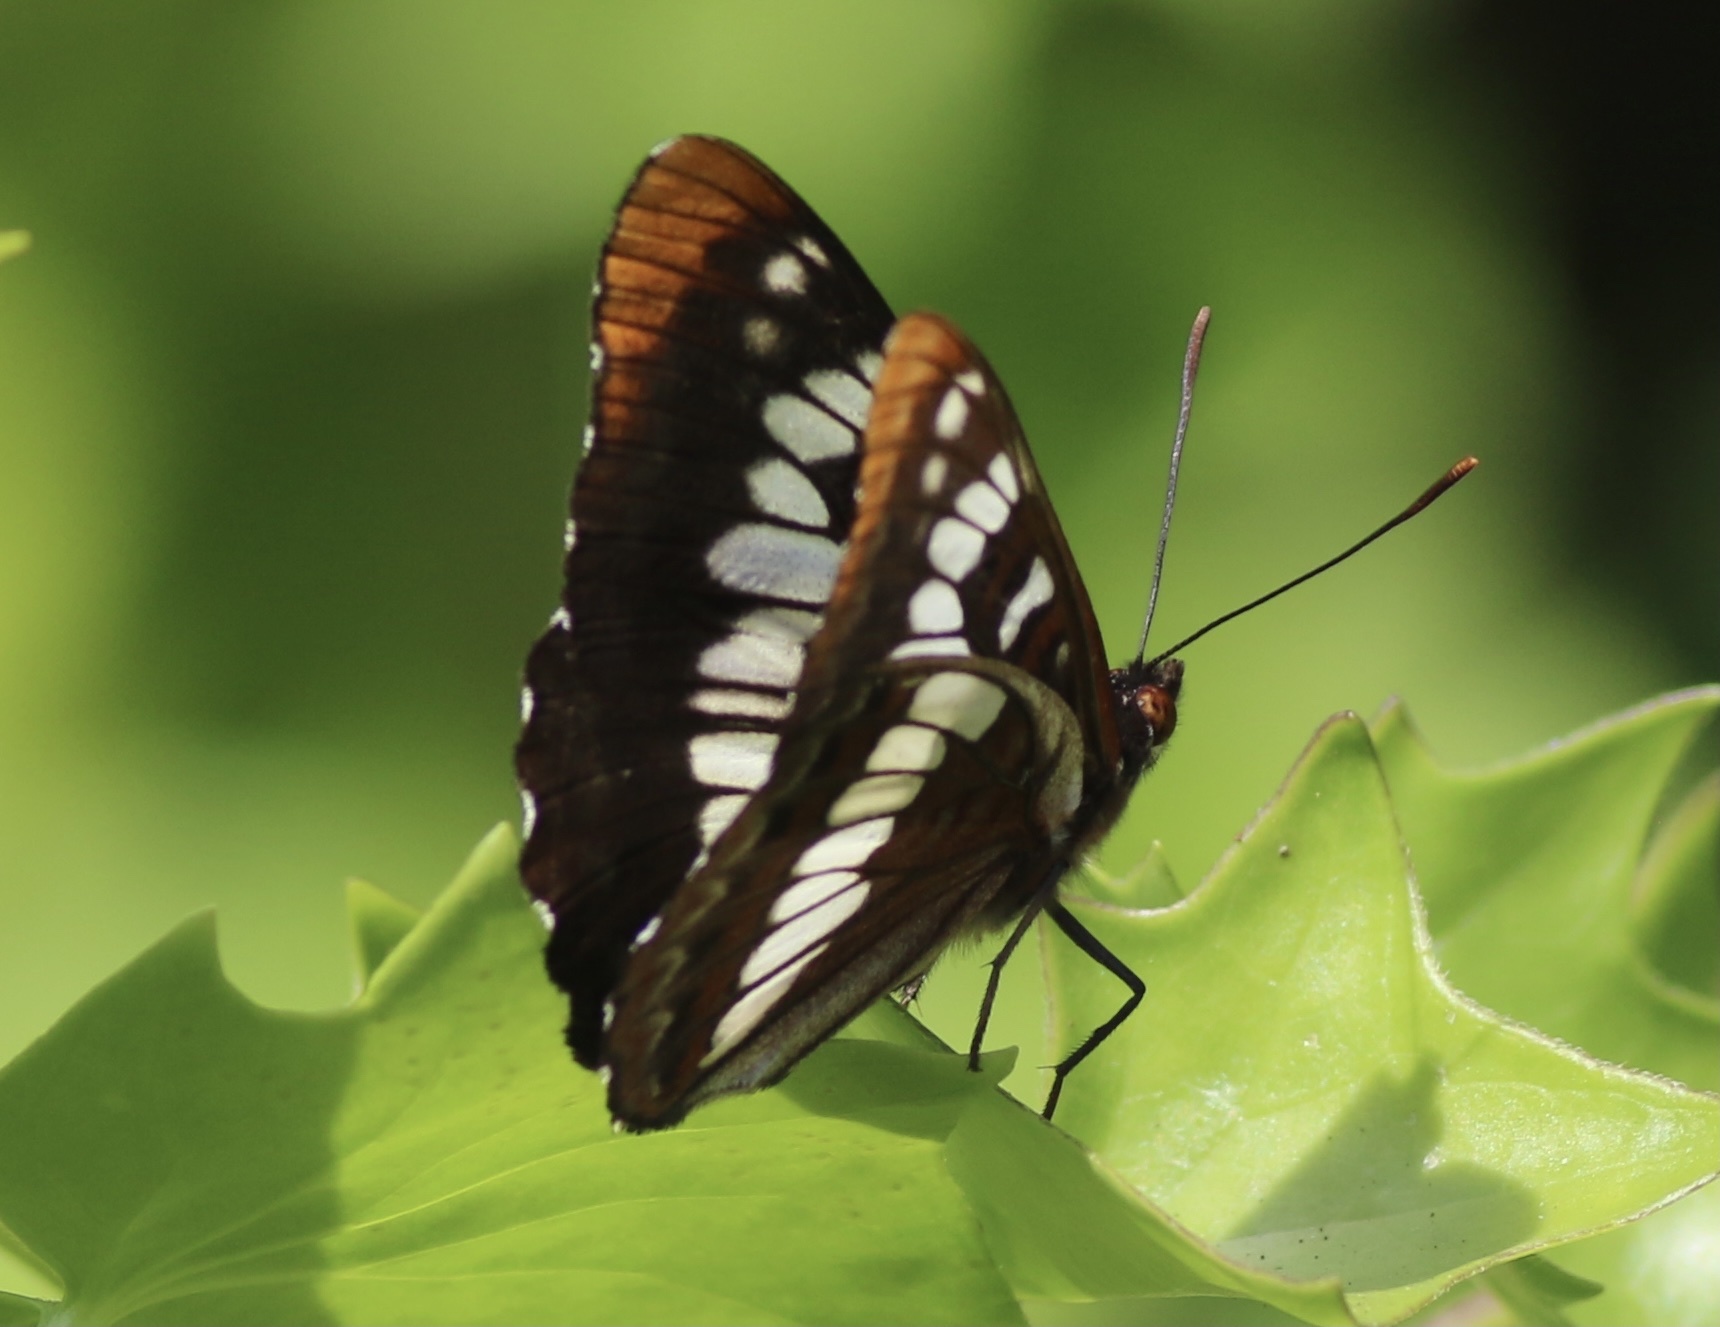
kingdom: Animalia
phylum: Arthropoda
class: Insecta
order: Lepidoptera
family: Nymphalidae
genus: Limenitis
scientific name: Limenitis lorquini
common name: Lorquin's admiral
